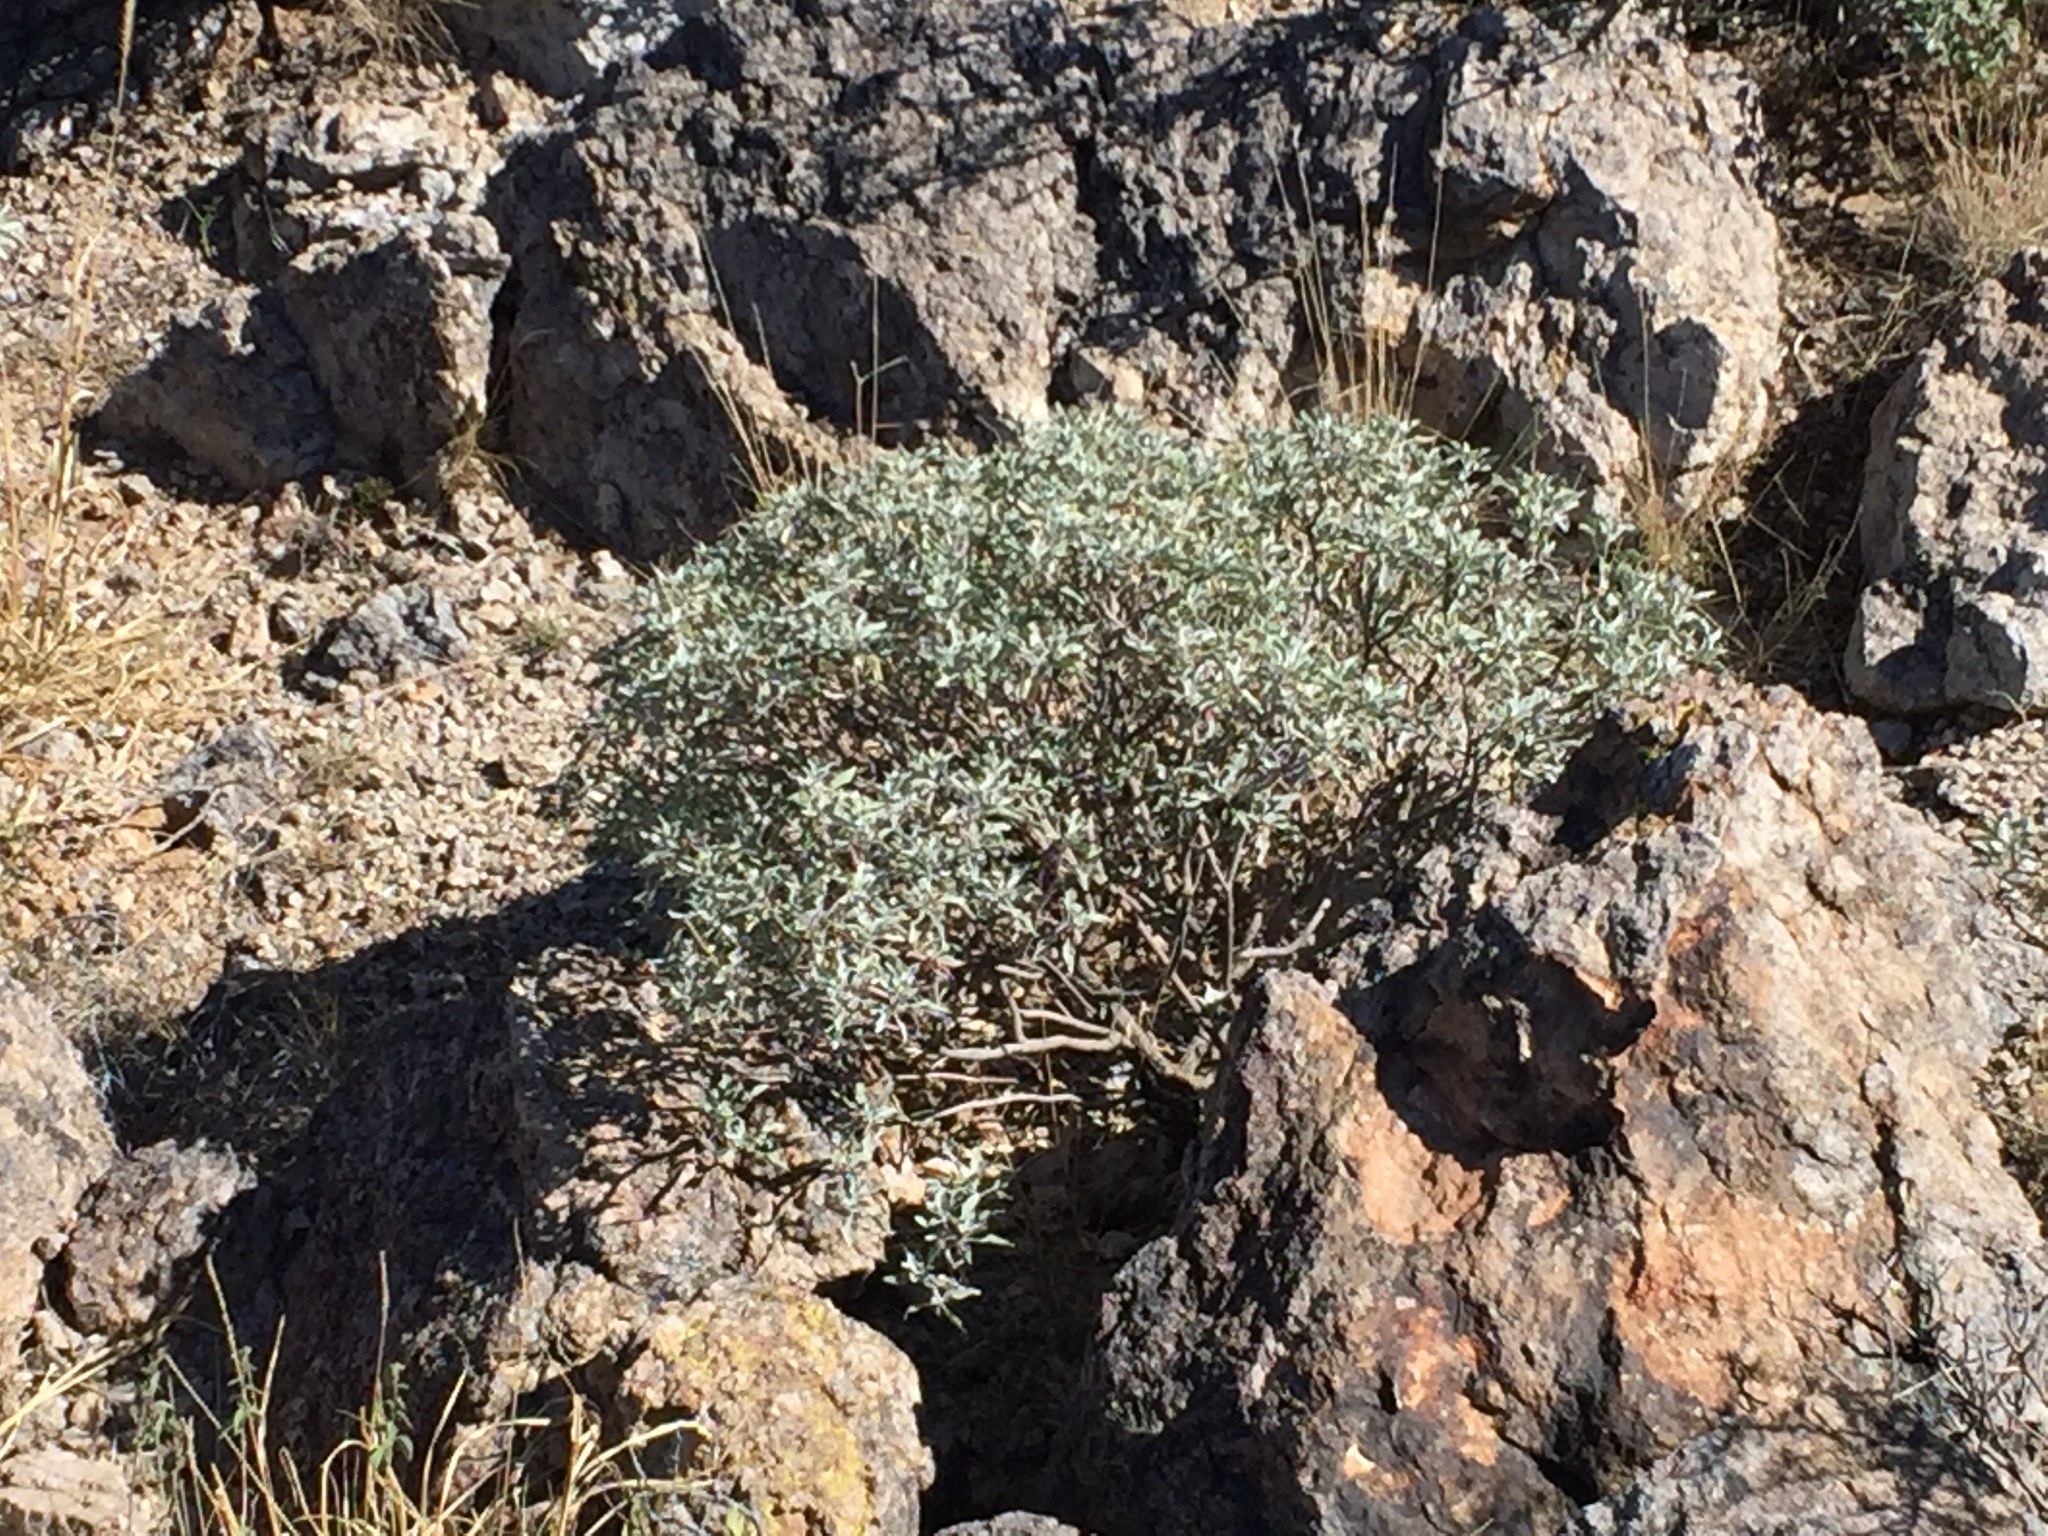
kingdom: Plantae
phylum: Tracheophyta
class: Magnoliopsida
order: Asterales
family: Asteraceae
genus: Encelia
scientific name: Encelia farinosa
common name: Brittlebush
